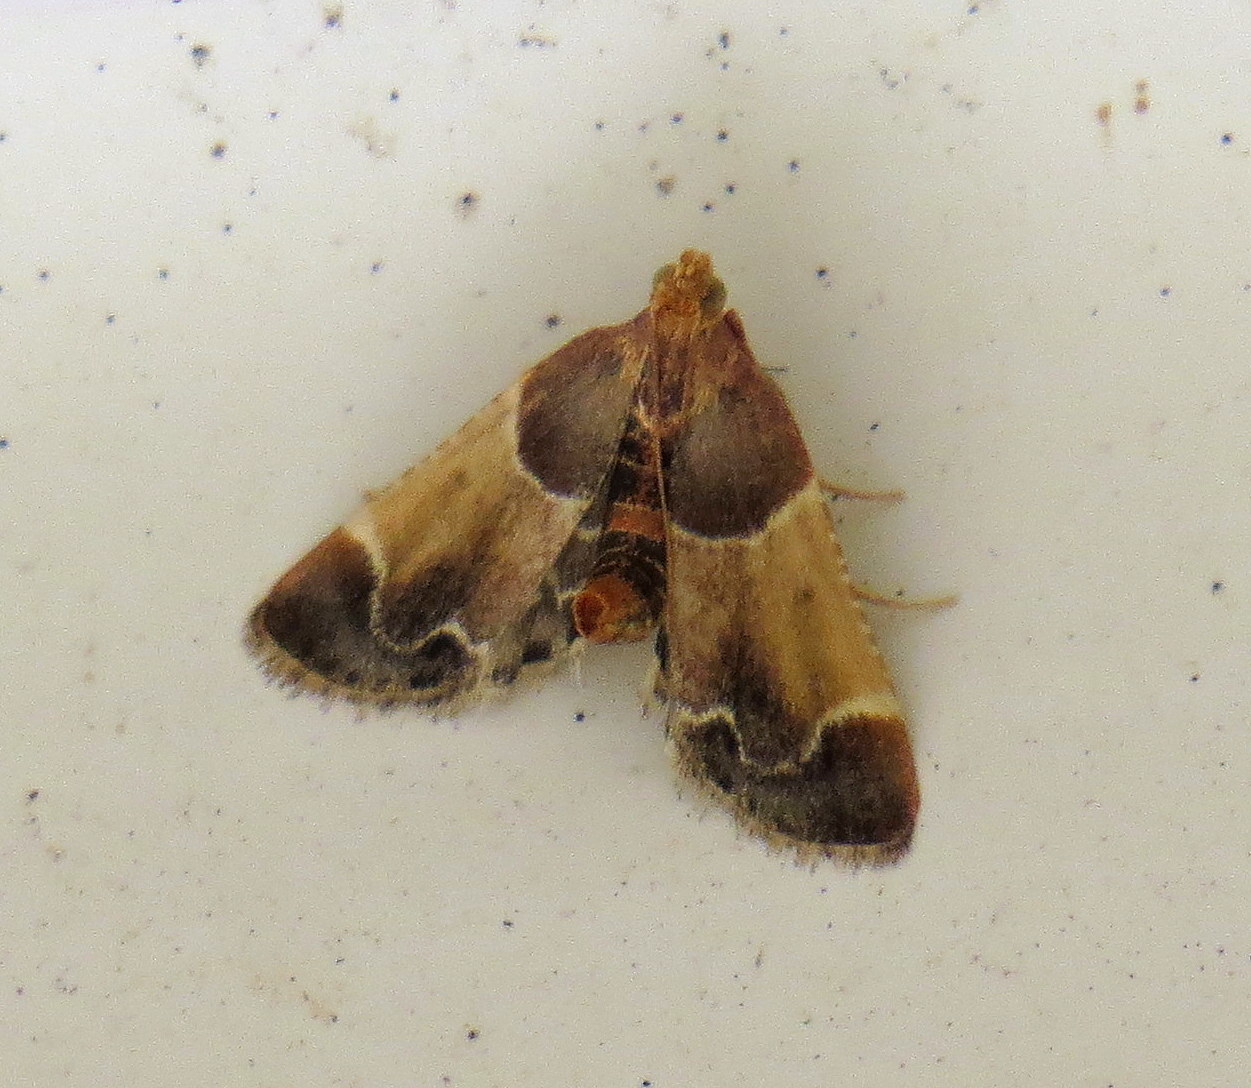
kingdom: Animalia
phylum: Arthropoda
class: Insecta
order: Lepidoptera
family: Pyralidae
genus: Pyralis
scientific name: Pyralis farinalis
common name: Meal moth
